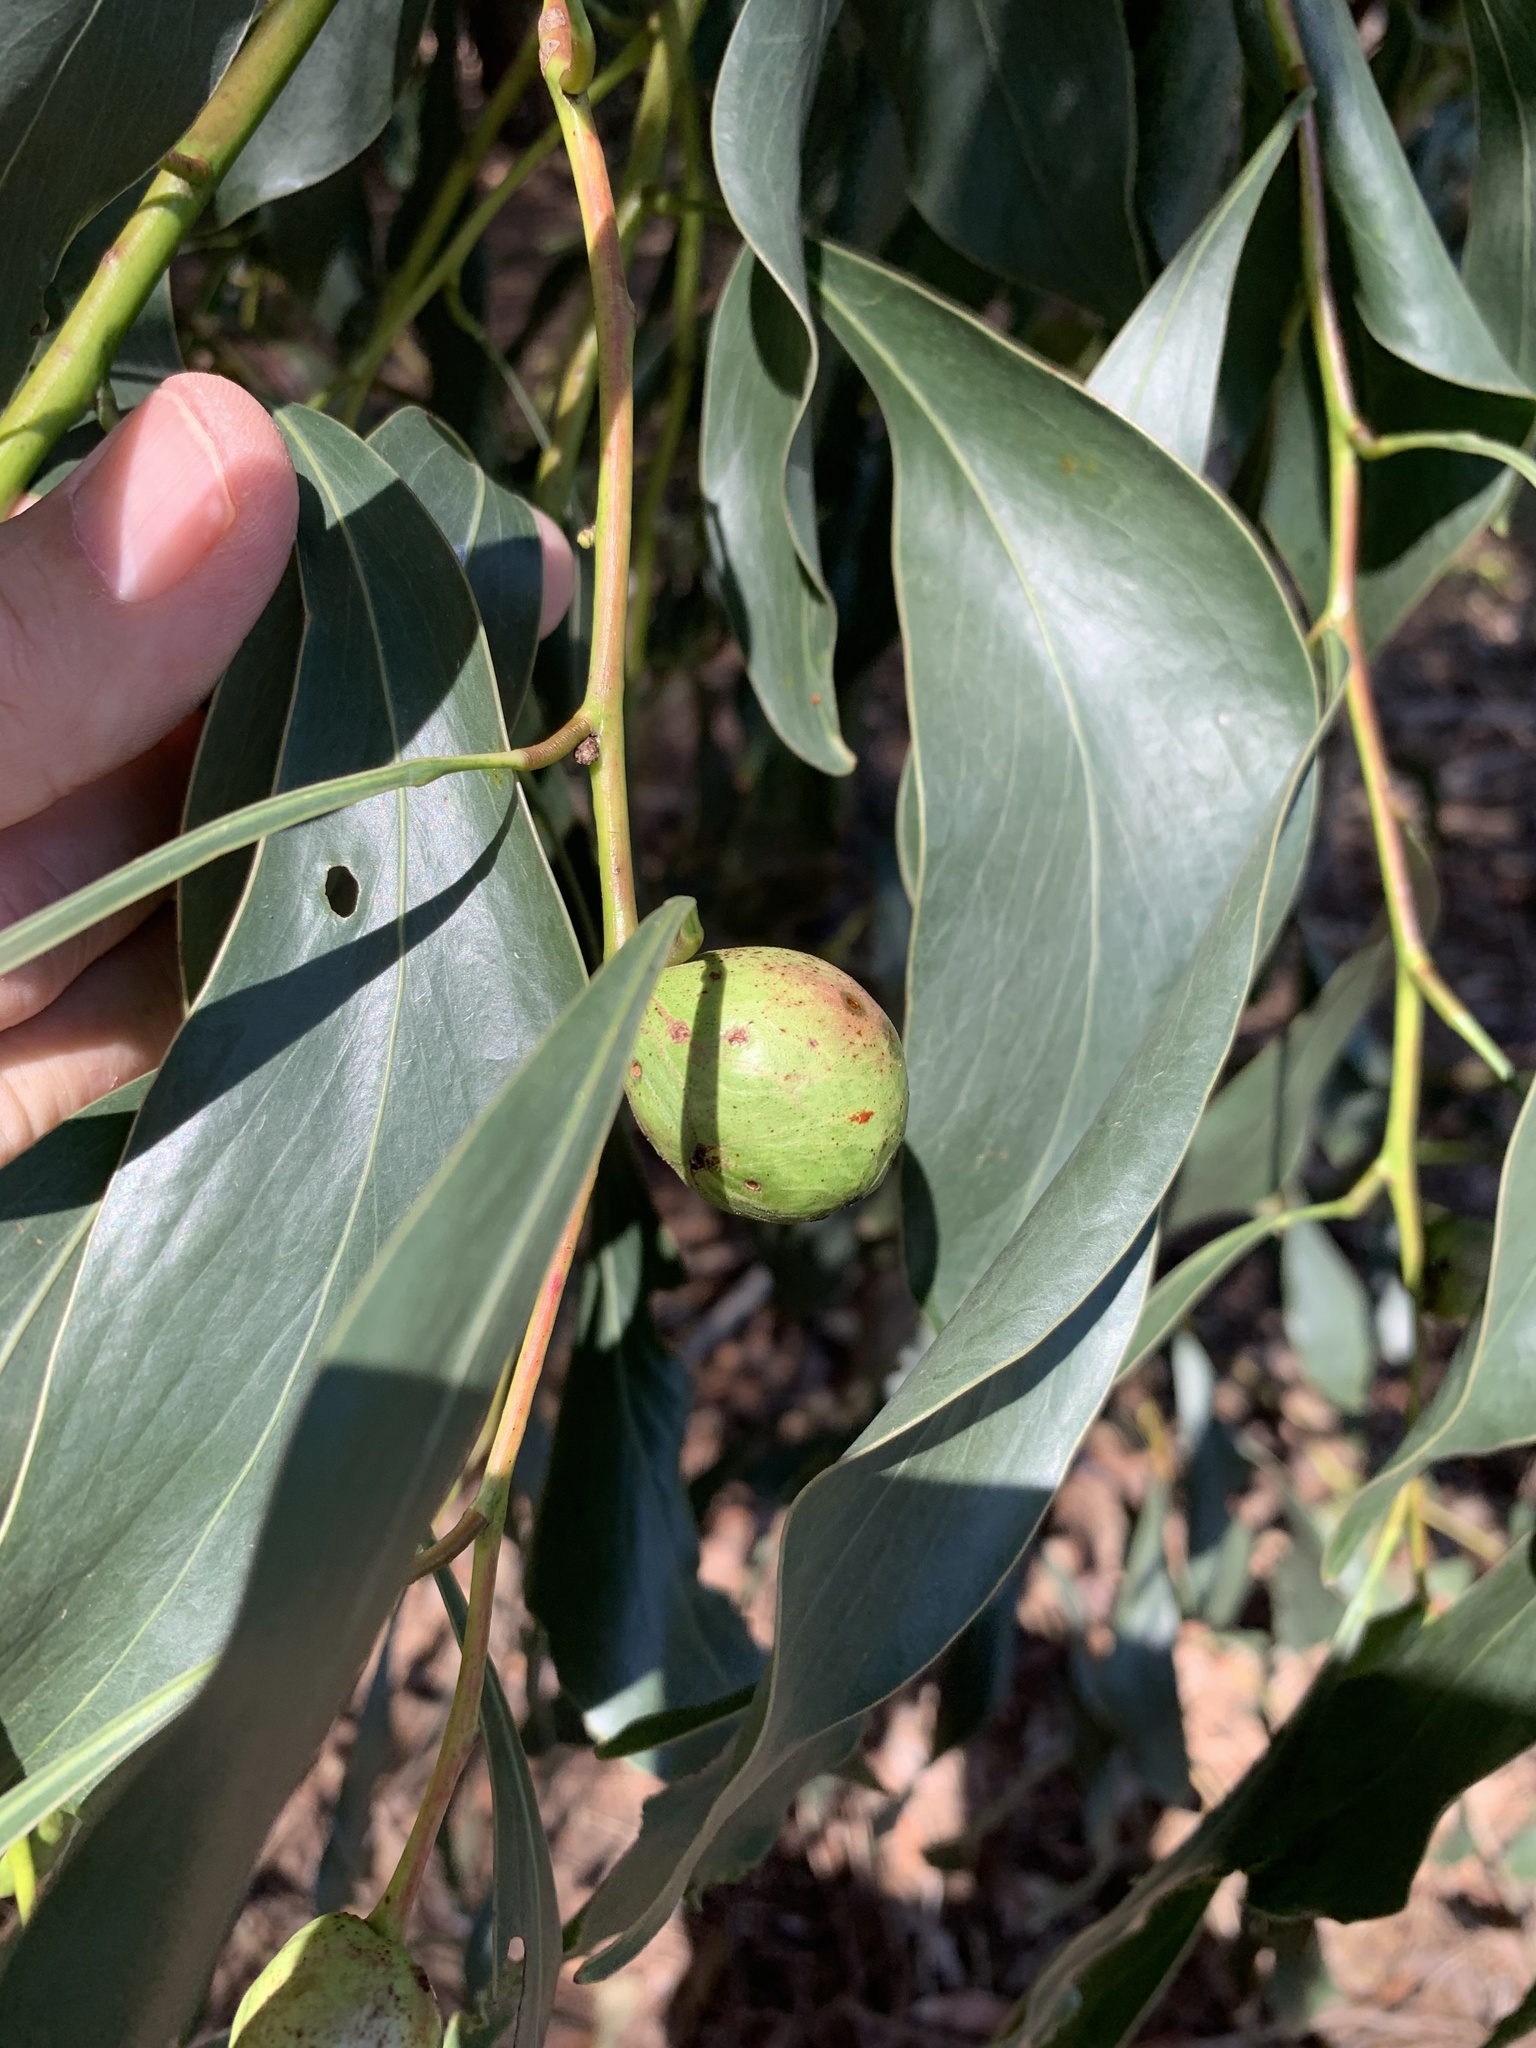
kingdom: Plantae
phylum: Tracheophyta
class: Magnoliopsida
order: Fabales
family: Fabaceae
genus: Acacia
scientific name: Acacia pycnantha
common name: Golden wattle
